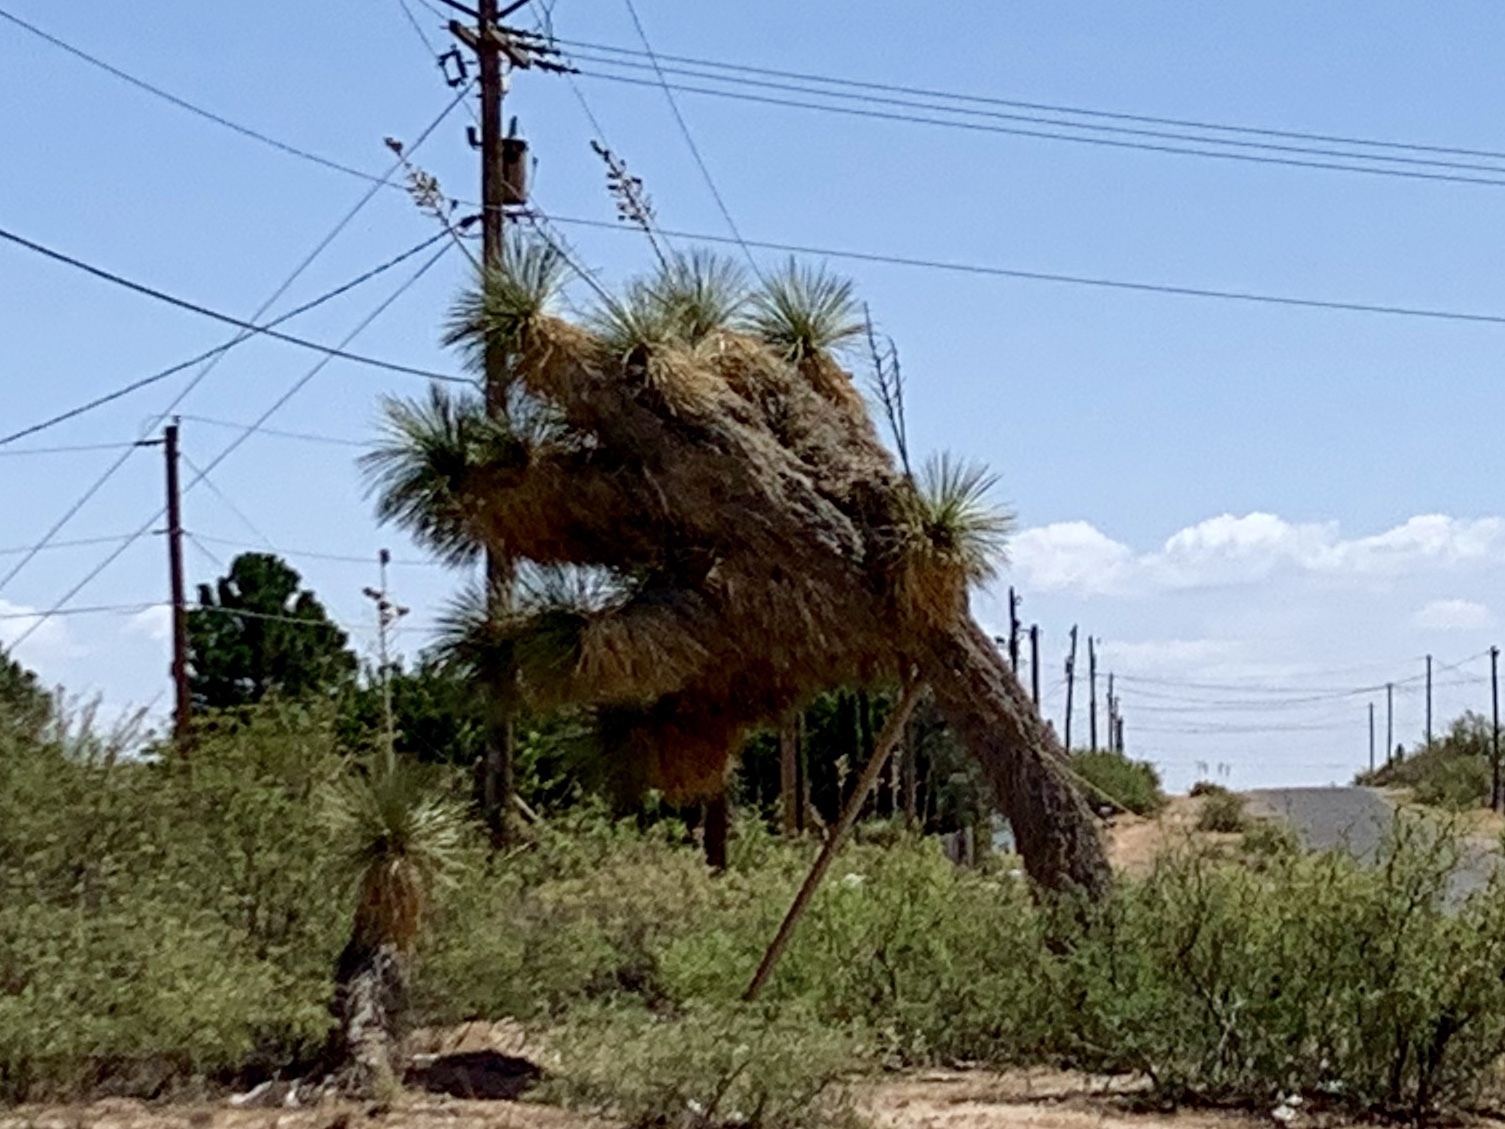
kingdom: Plantae
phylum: Tracheophyta
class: Liliopsida
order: Asparagales
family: Asparagaceae
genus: Yucca
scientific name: Yucca elata
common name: Palmella
